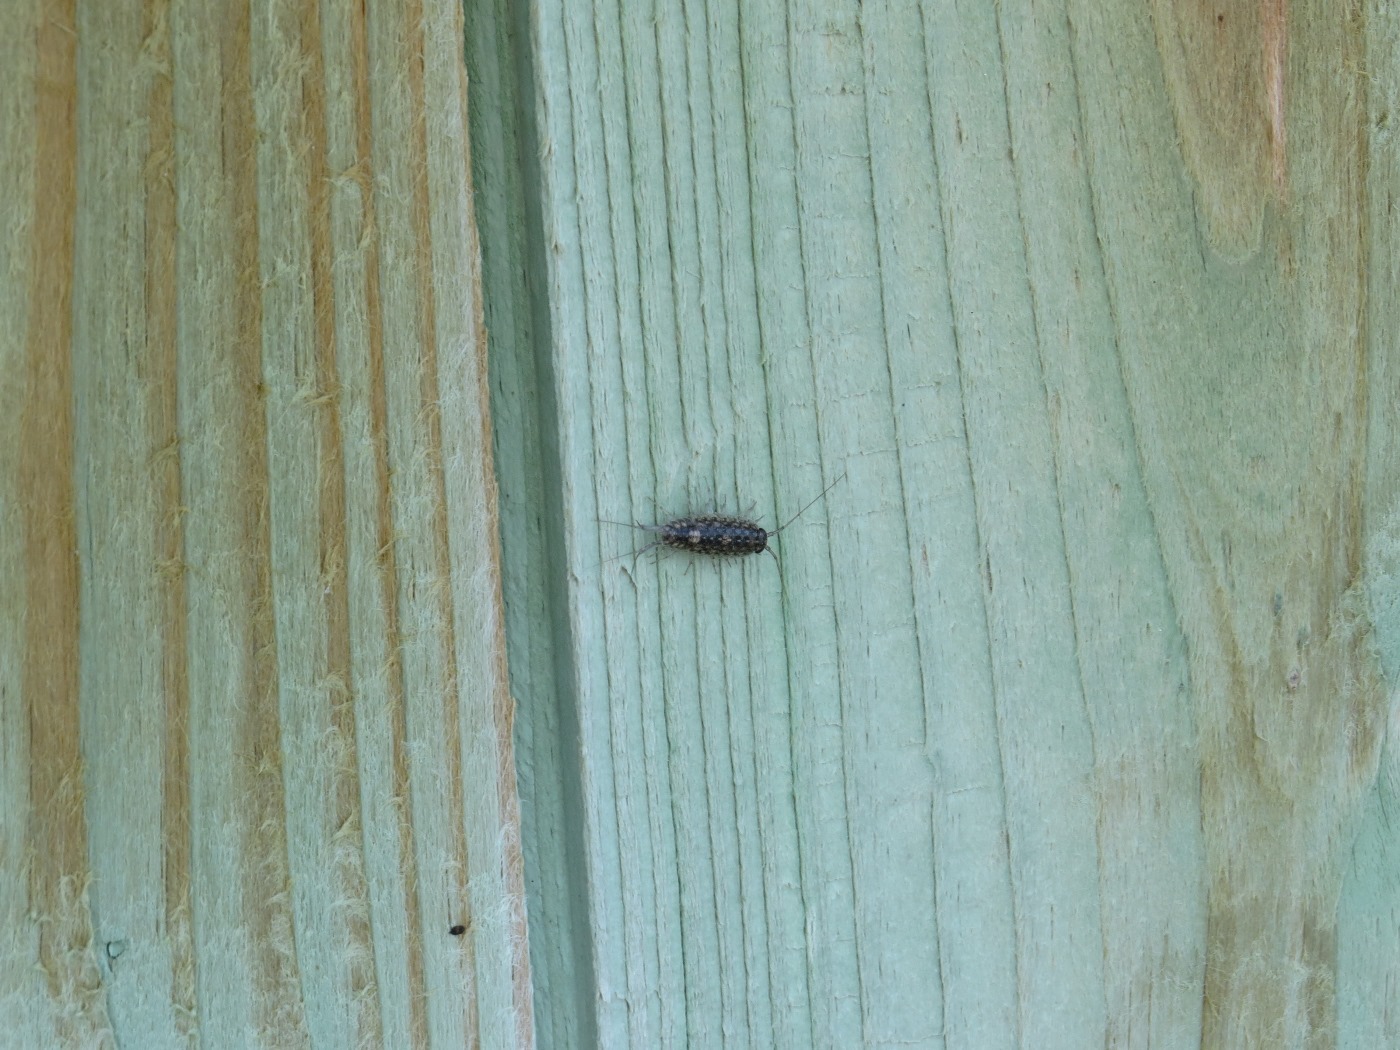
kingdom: Animalia
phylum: Arthropoda
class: Malacostraca
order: Isopoda
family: Ligiidae
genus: Ligia
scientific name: Ligia exotica
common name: Wharf roach
